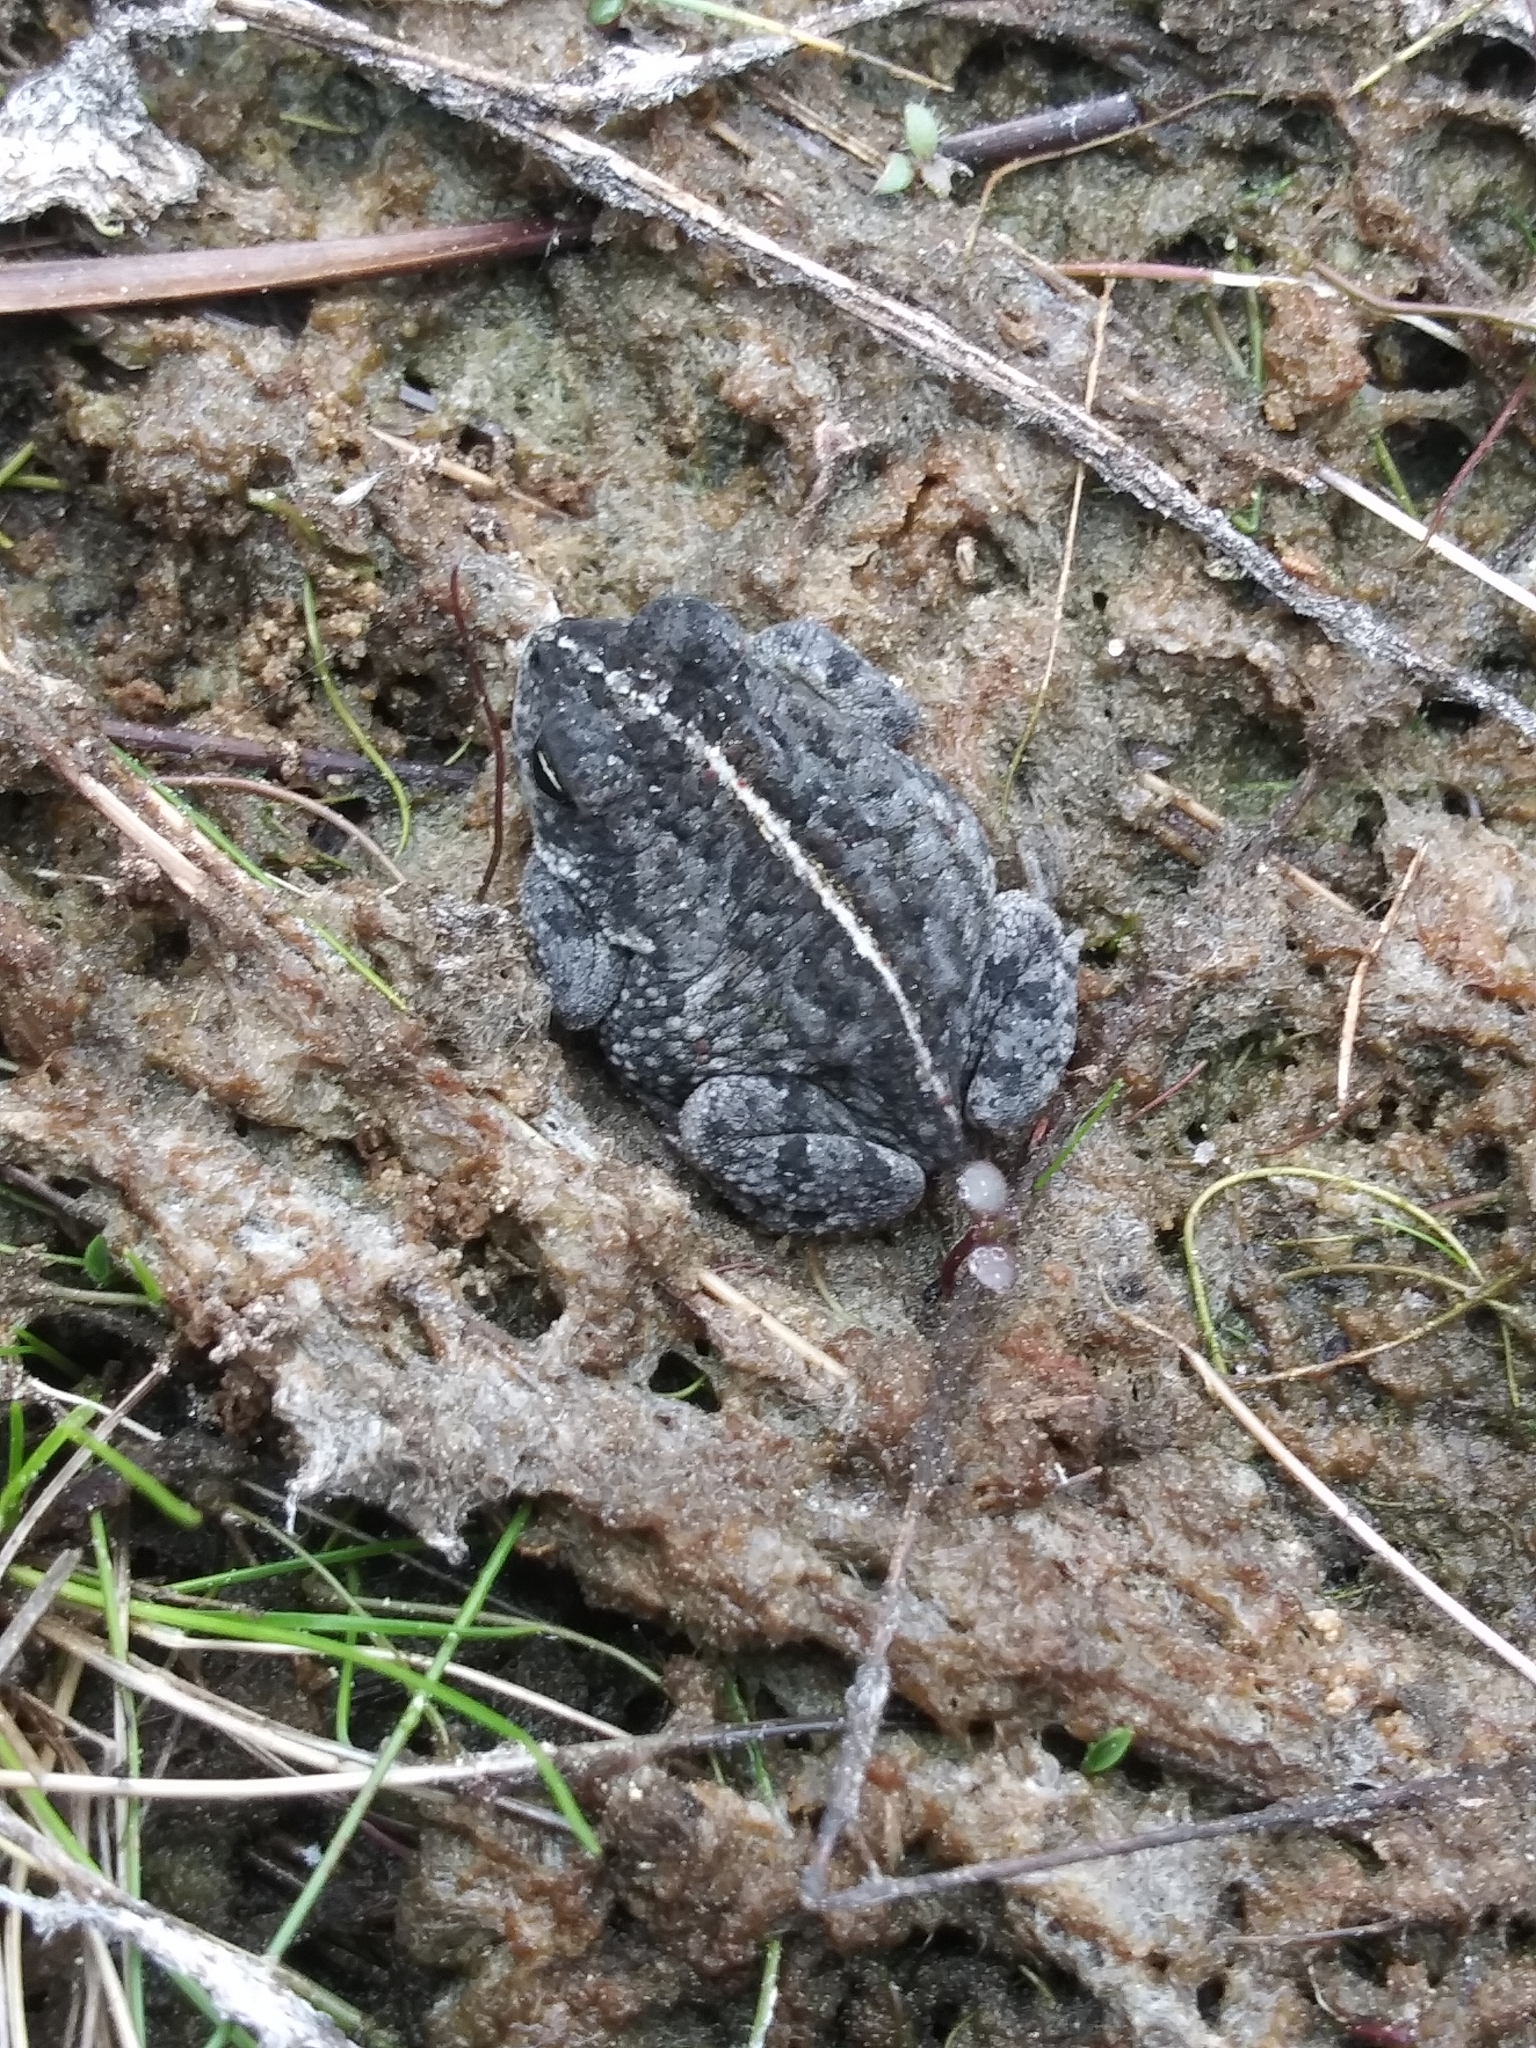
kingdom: Animalia
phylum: Chordata
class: Amphibia
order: Anura
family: Bufonidae
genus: Anaxyrus
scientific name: Anaxyrus quercicus
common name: Oak toad
